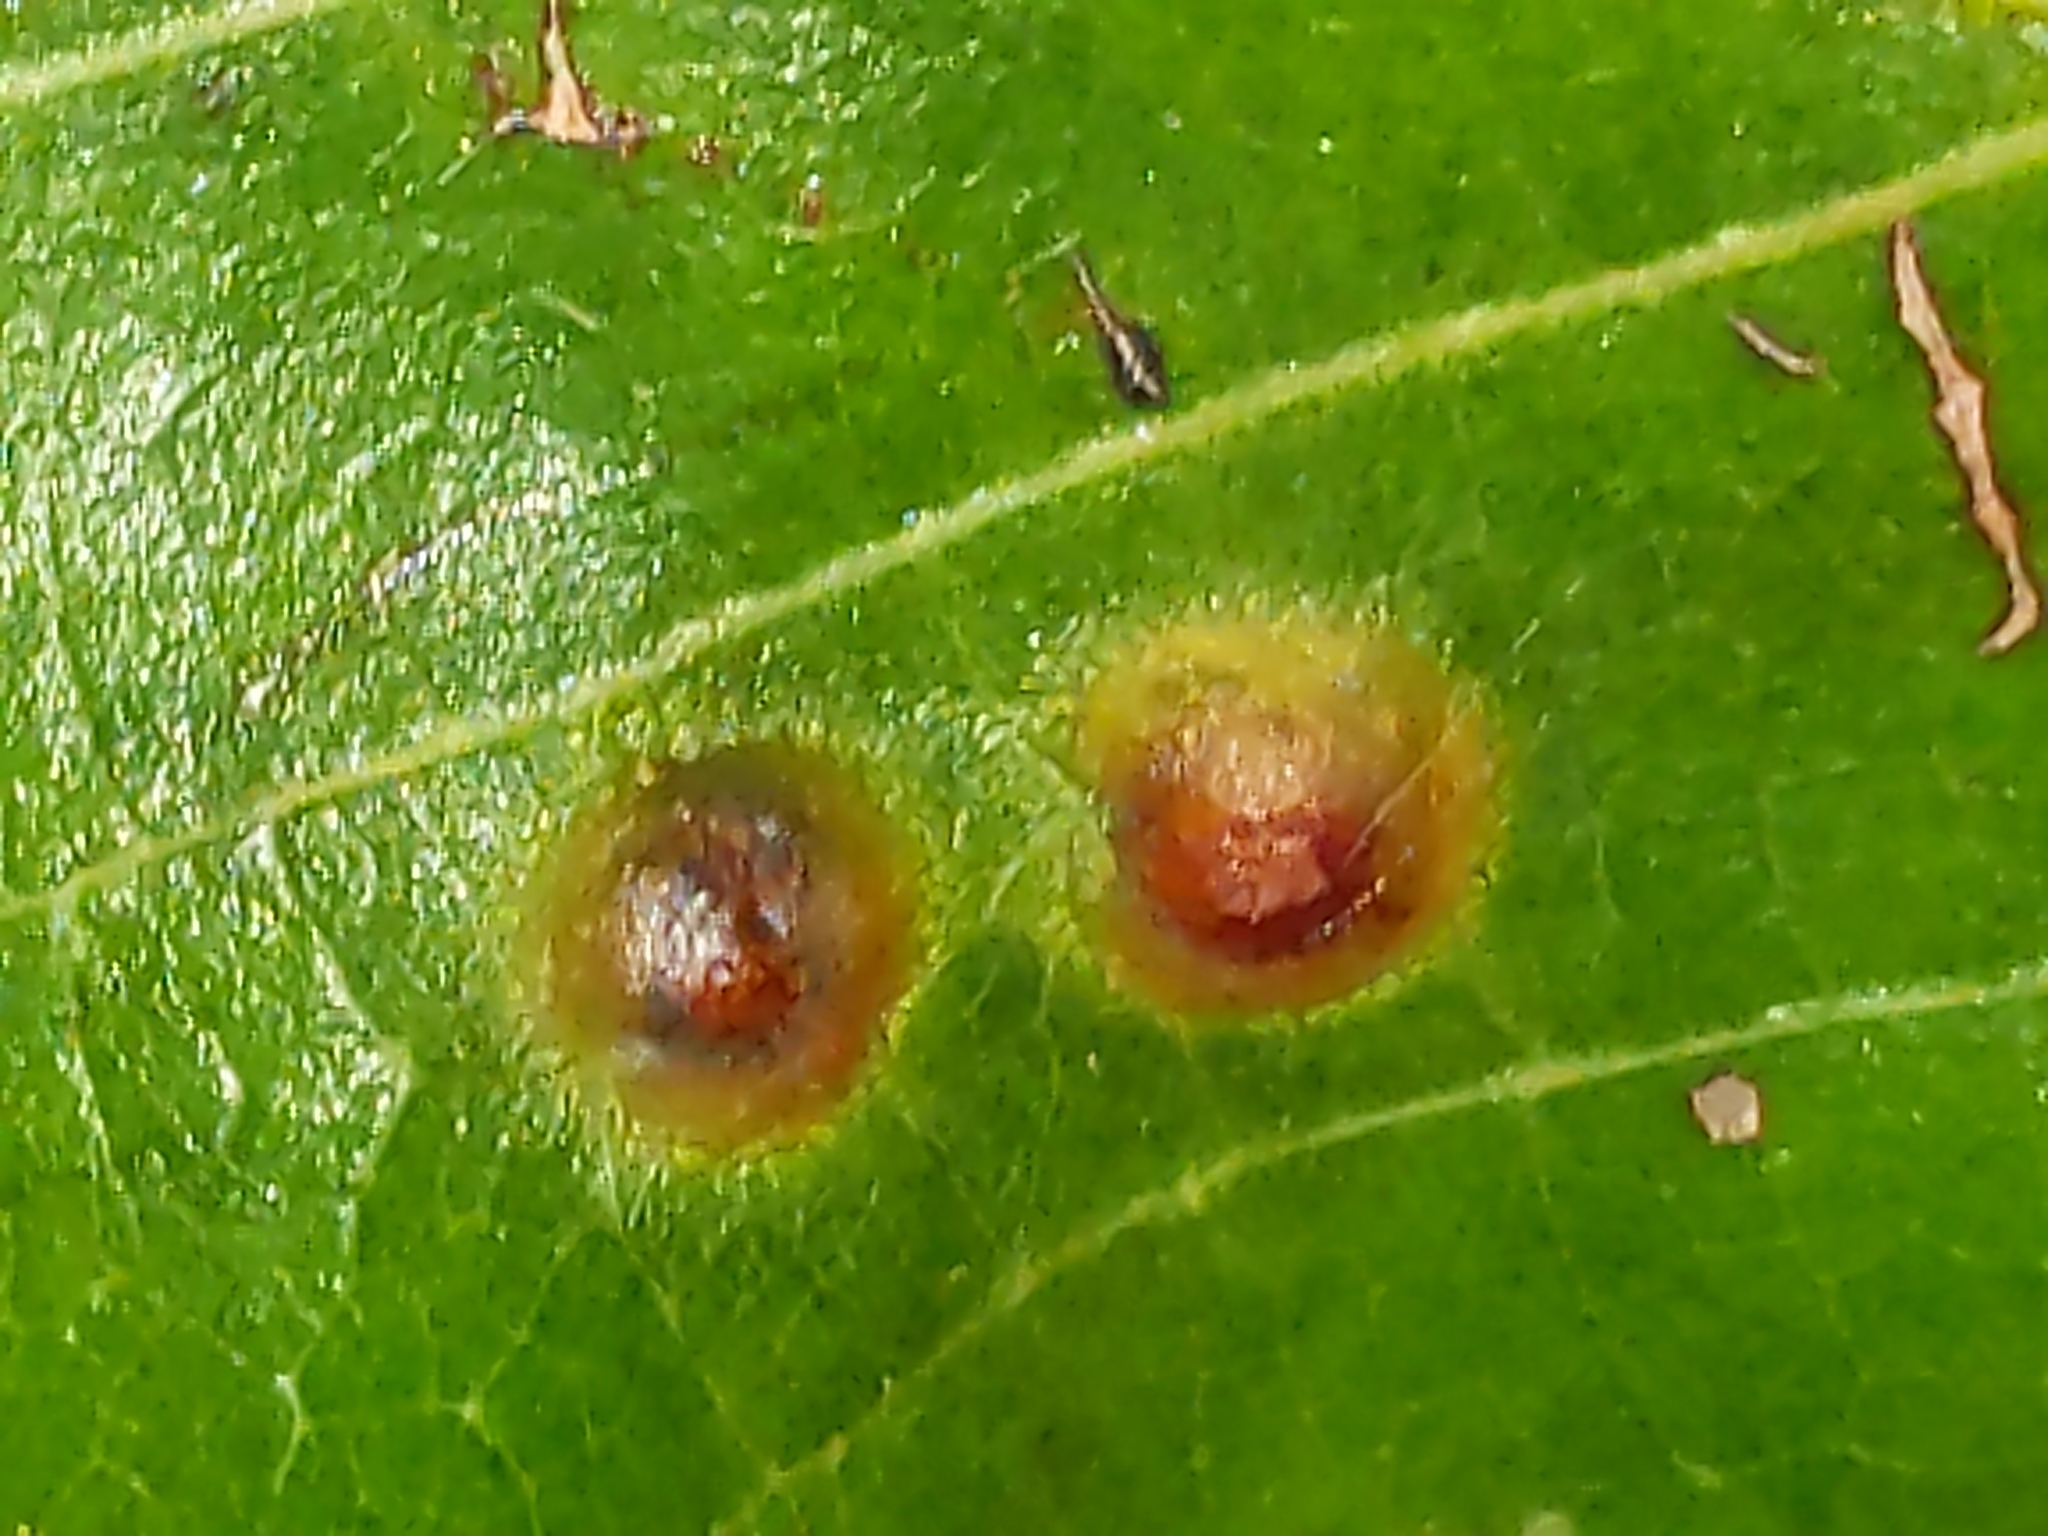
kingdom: Animalia
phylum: Arthropoda
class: Insecta
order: Hymenoptera
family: Cynipidae
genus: Callirhytis
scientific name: Callirhytis
